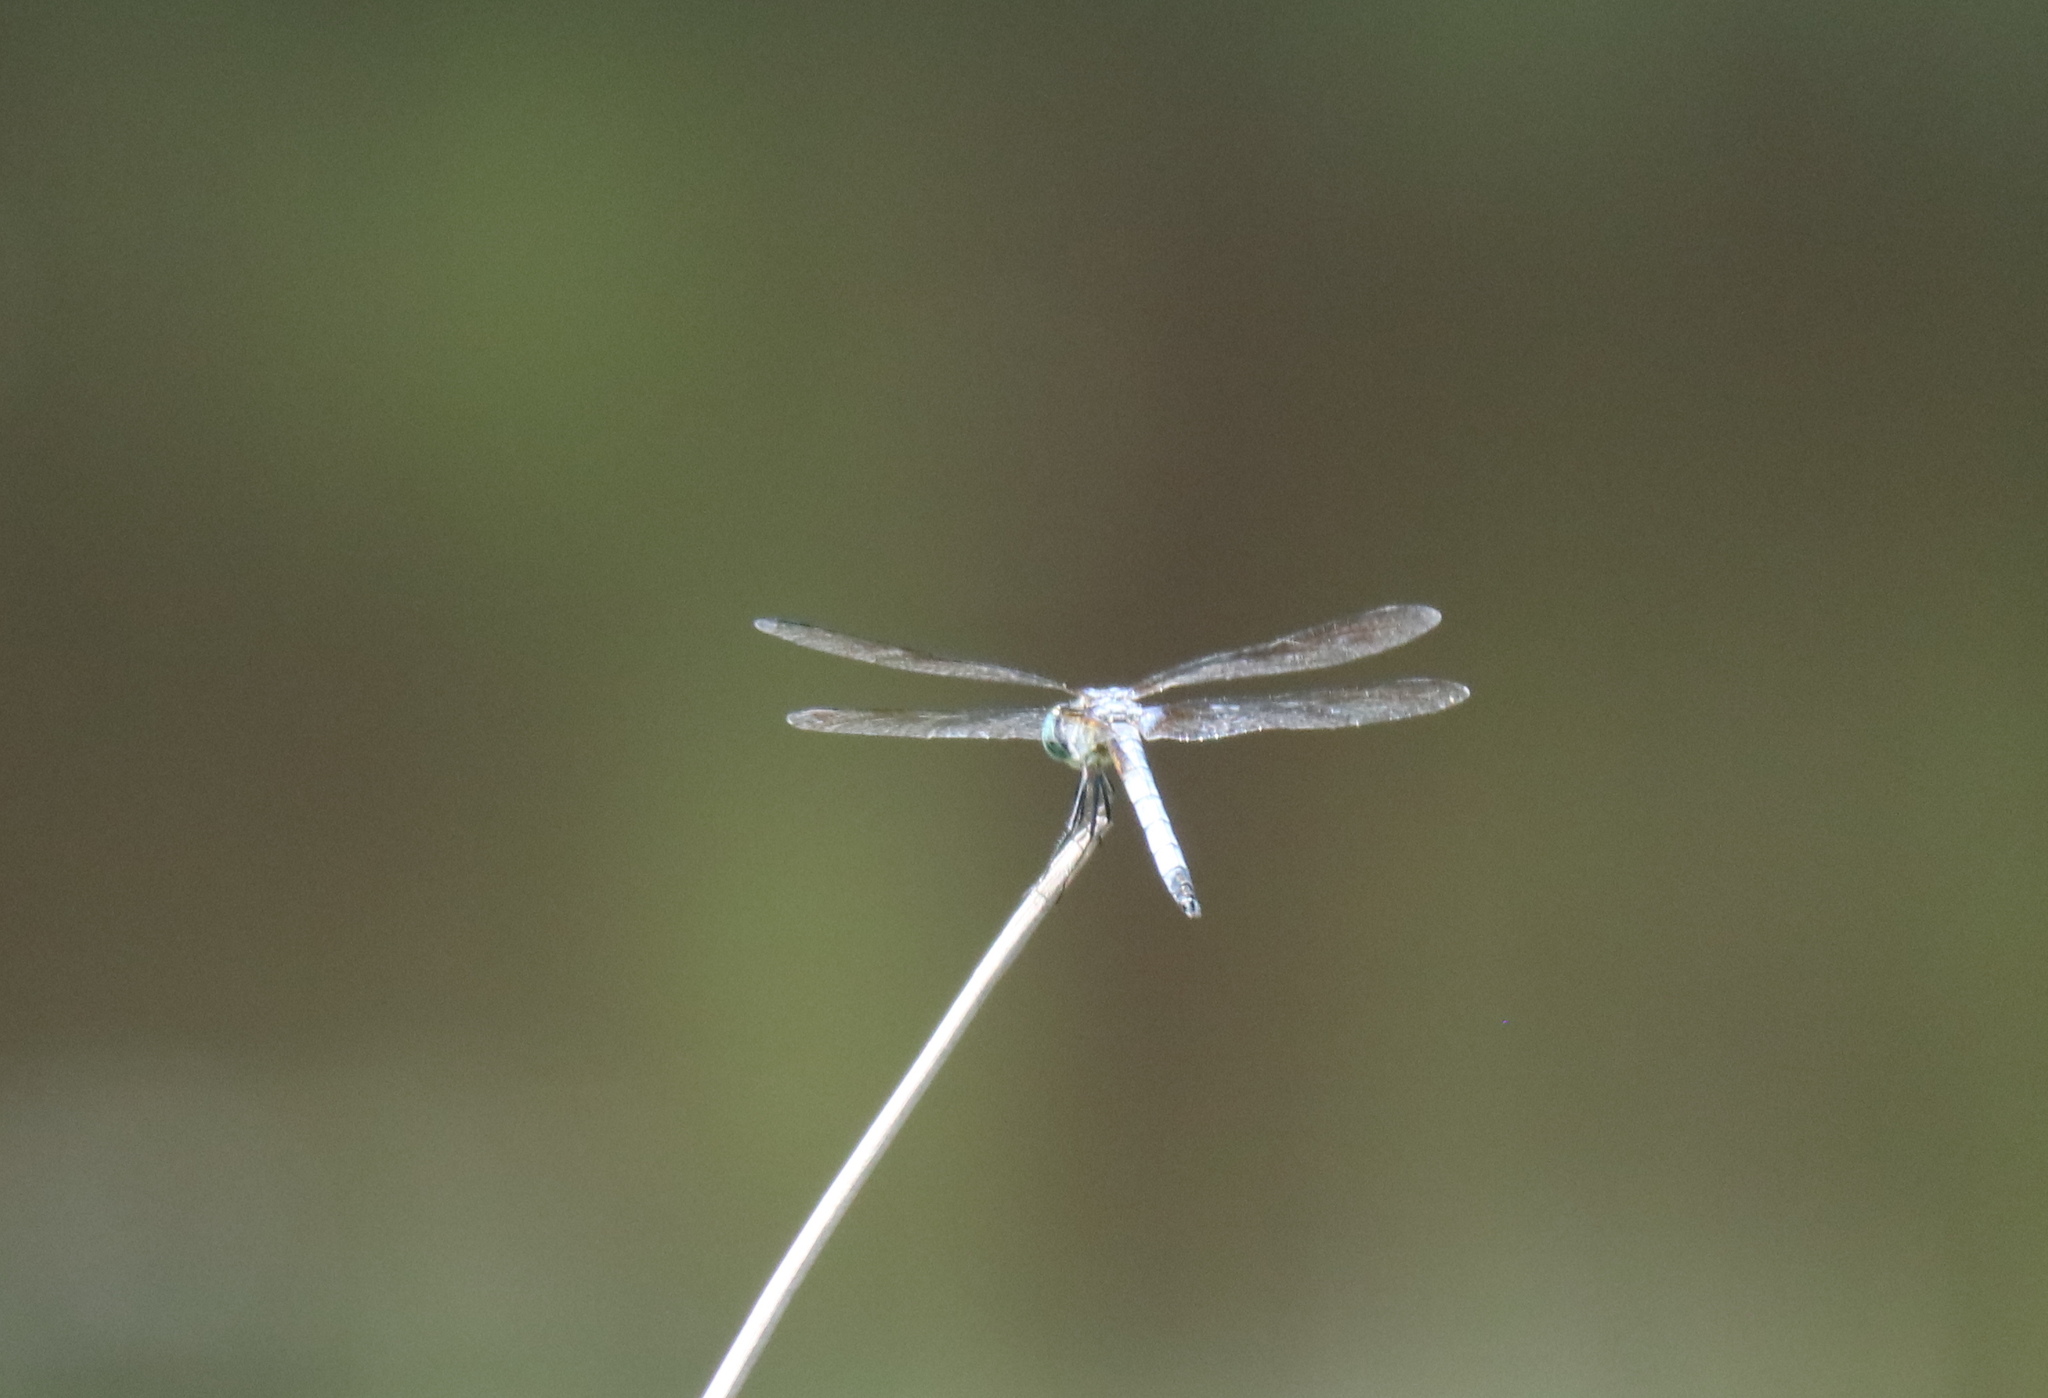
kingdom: Animalia
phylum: Arthropoda
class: Insecta
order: Odonata
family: Libellulidae
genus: Pachydiplax
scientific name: Pachydiplax longipennis
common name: Blue dasher
